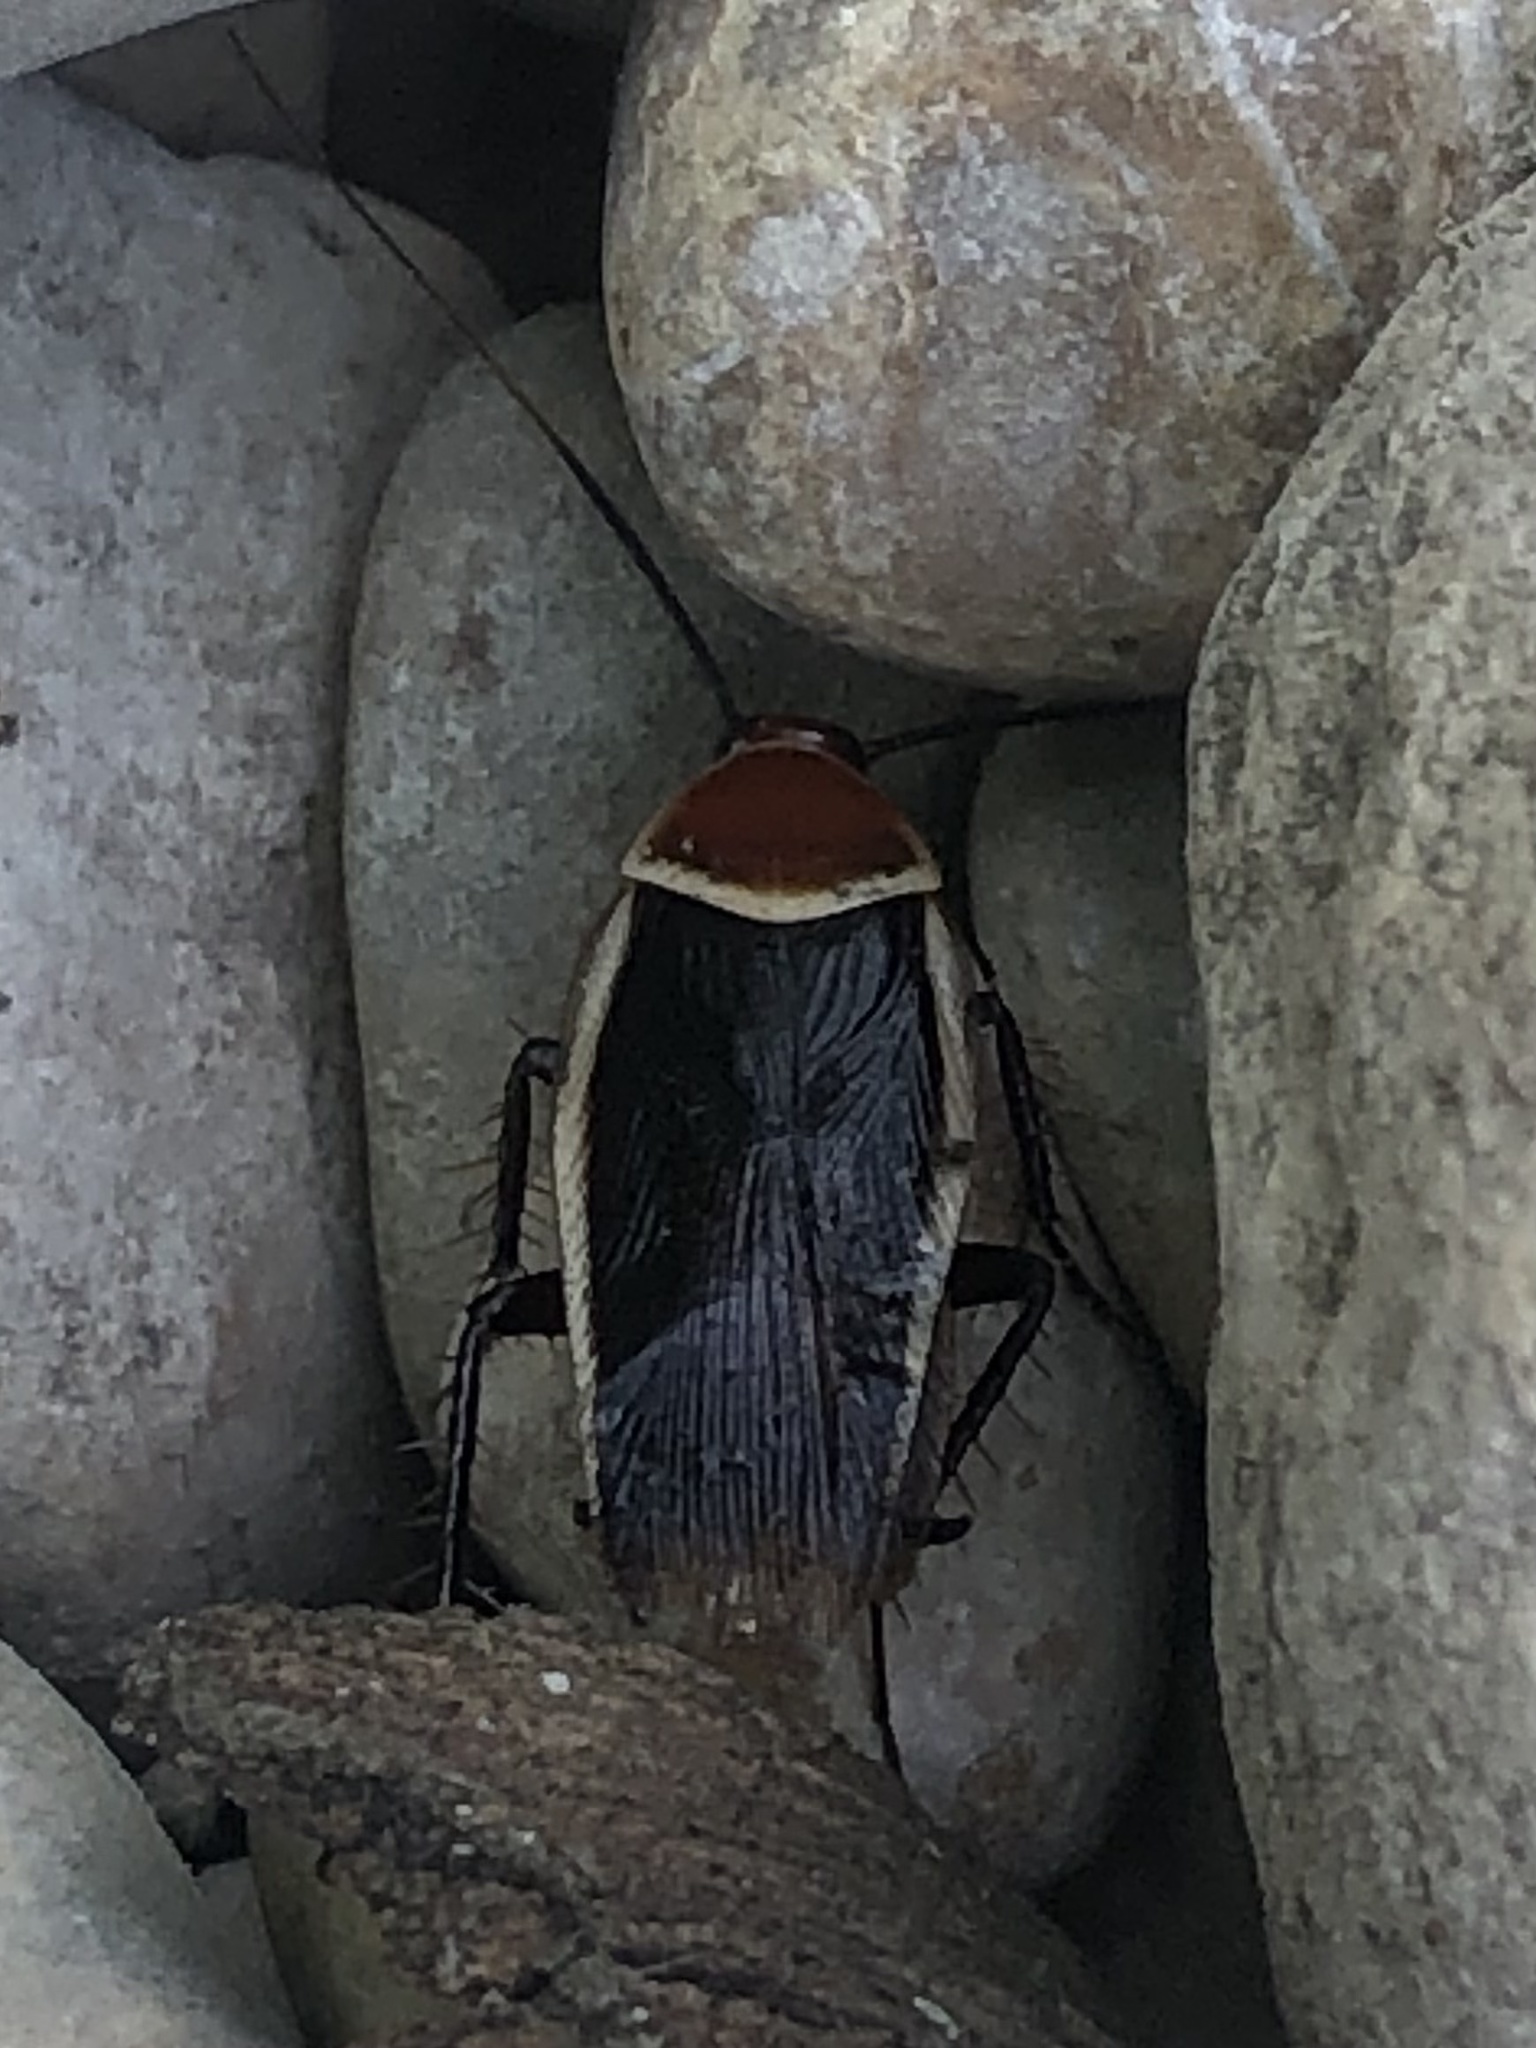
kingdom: Animalia
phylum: Arthropoda
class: Insecta
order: Blattodea
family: Ectobiidae
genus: Pseudomops
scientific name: Pseudomops septentrionalis
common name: Pale-bordered field cockroach
